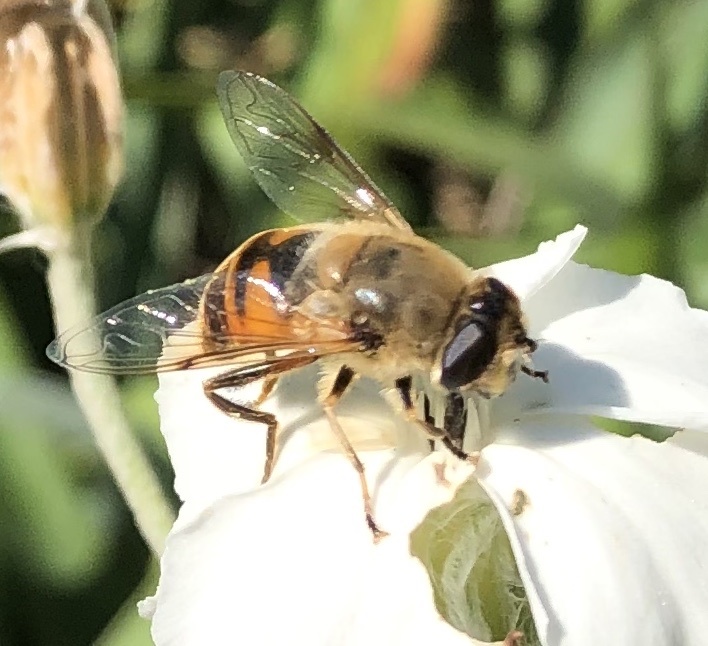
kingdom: Animalia
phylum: Arthropoda
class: Insecta
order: Diptera
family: Syrphidae
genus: Eristalis
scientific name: Eristalis tenax
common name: Drone fly
